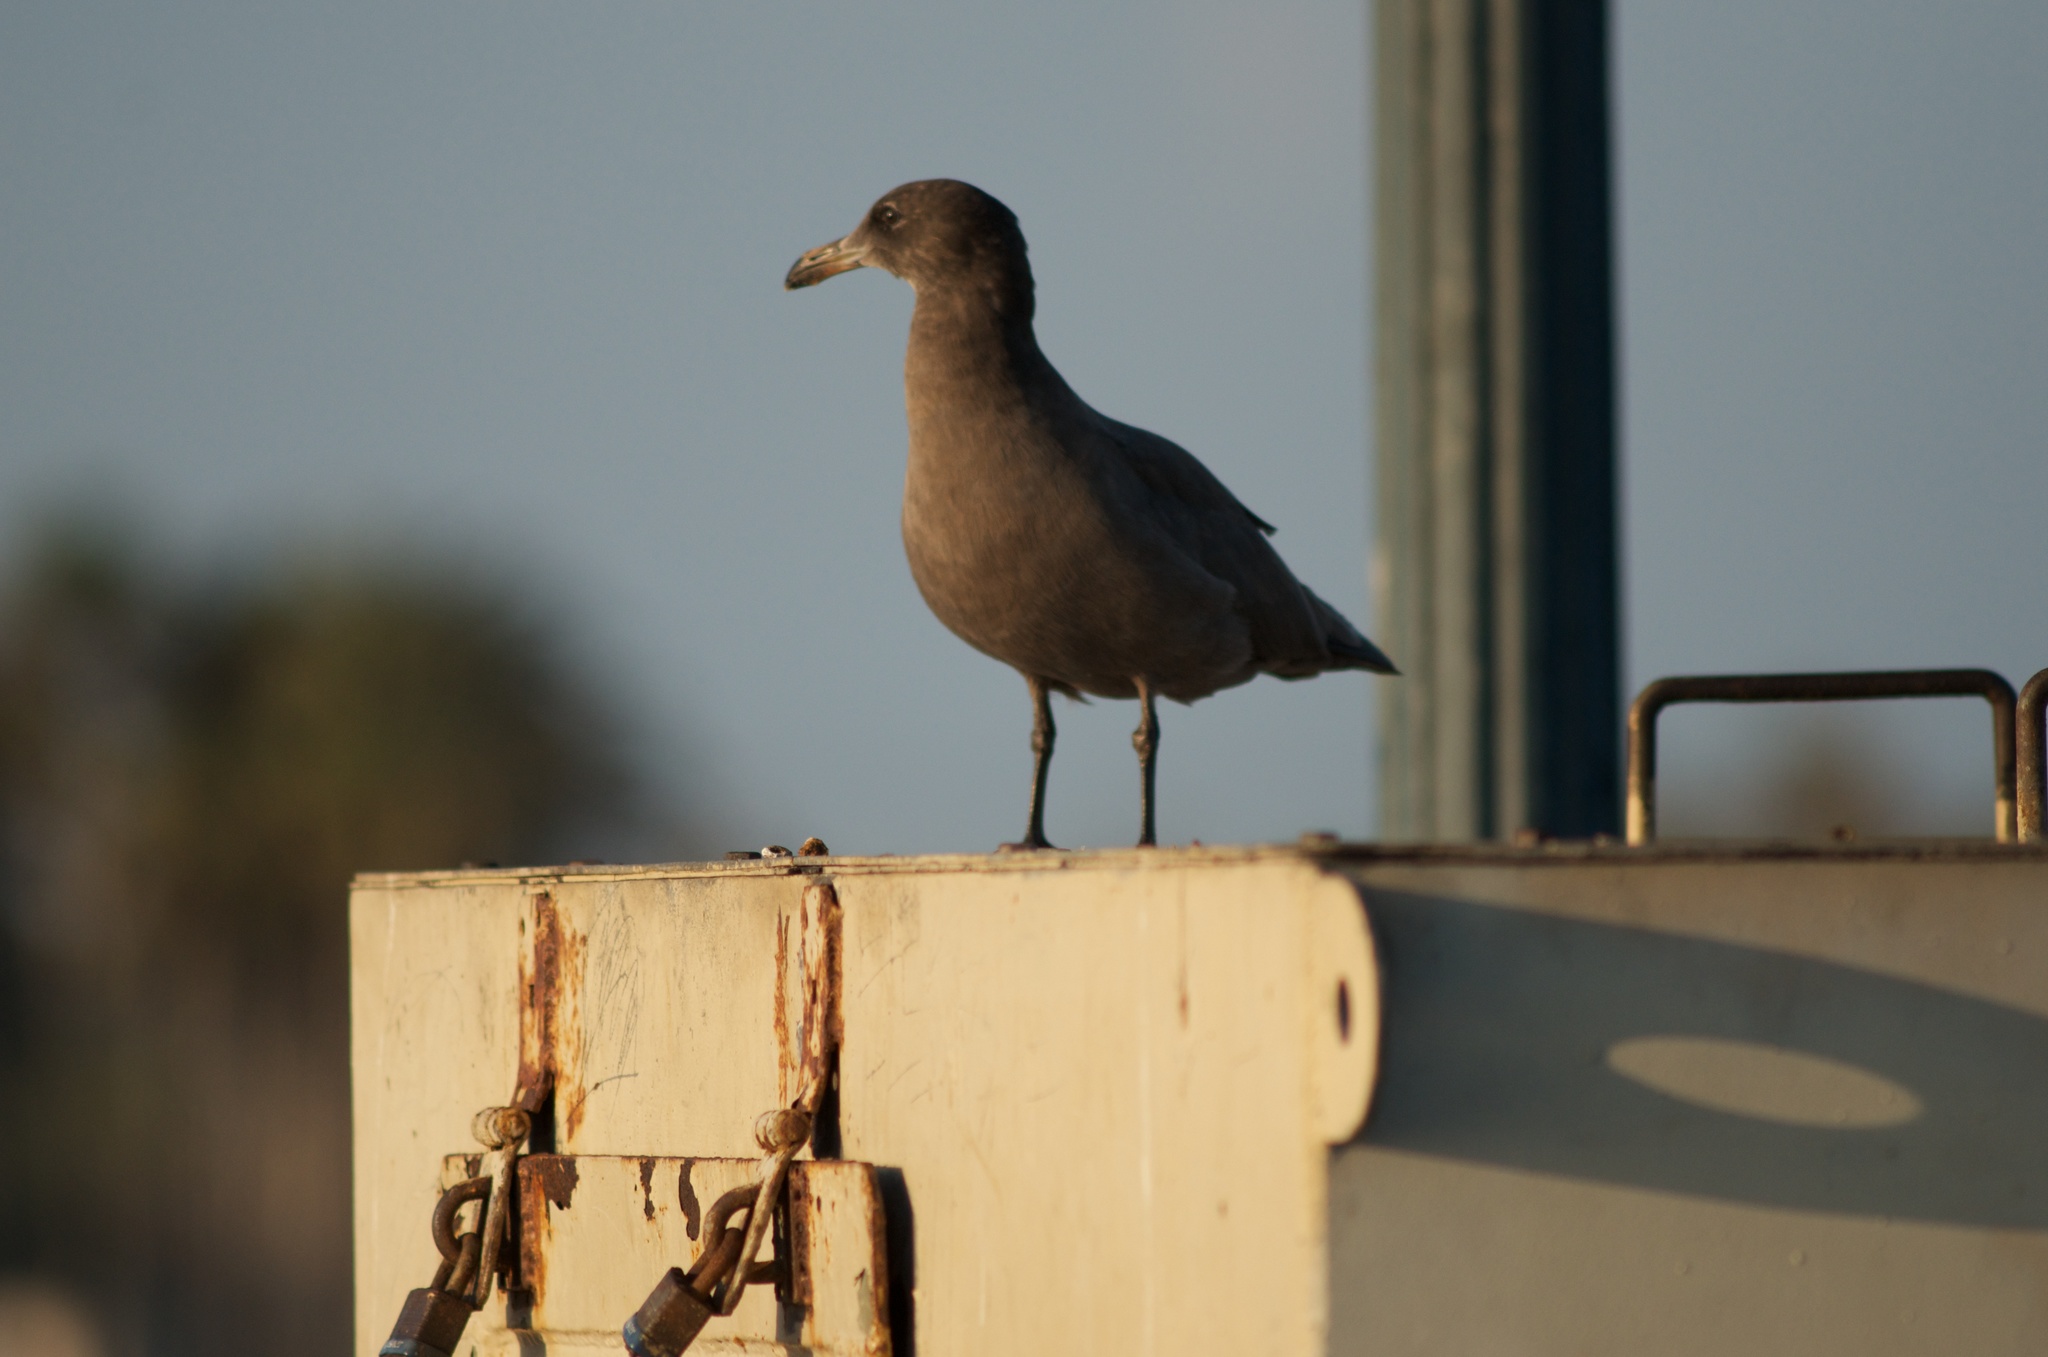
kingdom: Animalia
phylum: Chordata
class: Aves
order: Charadriiformes
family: Laridae
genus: Larus
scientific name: Larus heermanni
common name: Heermann's gull
